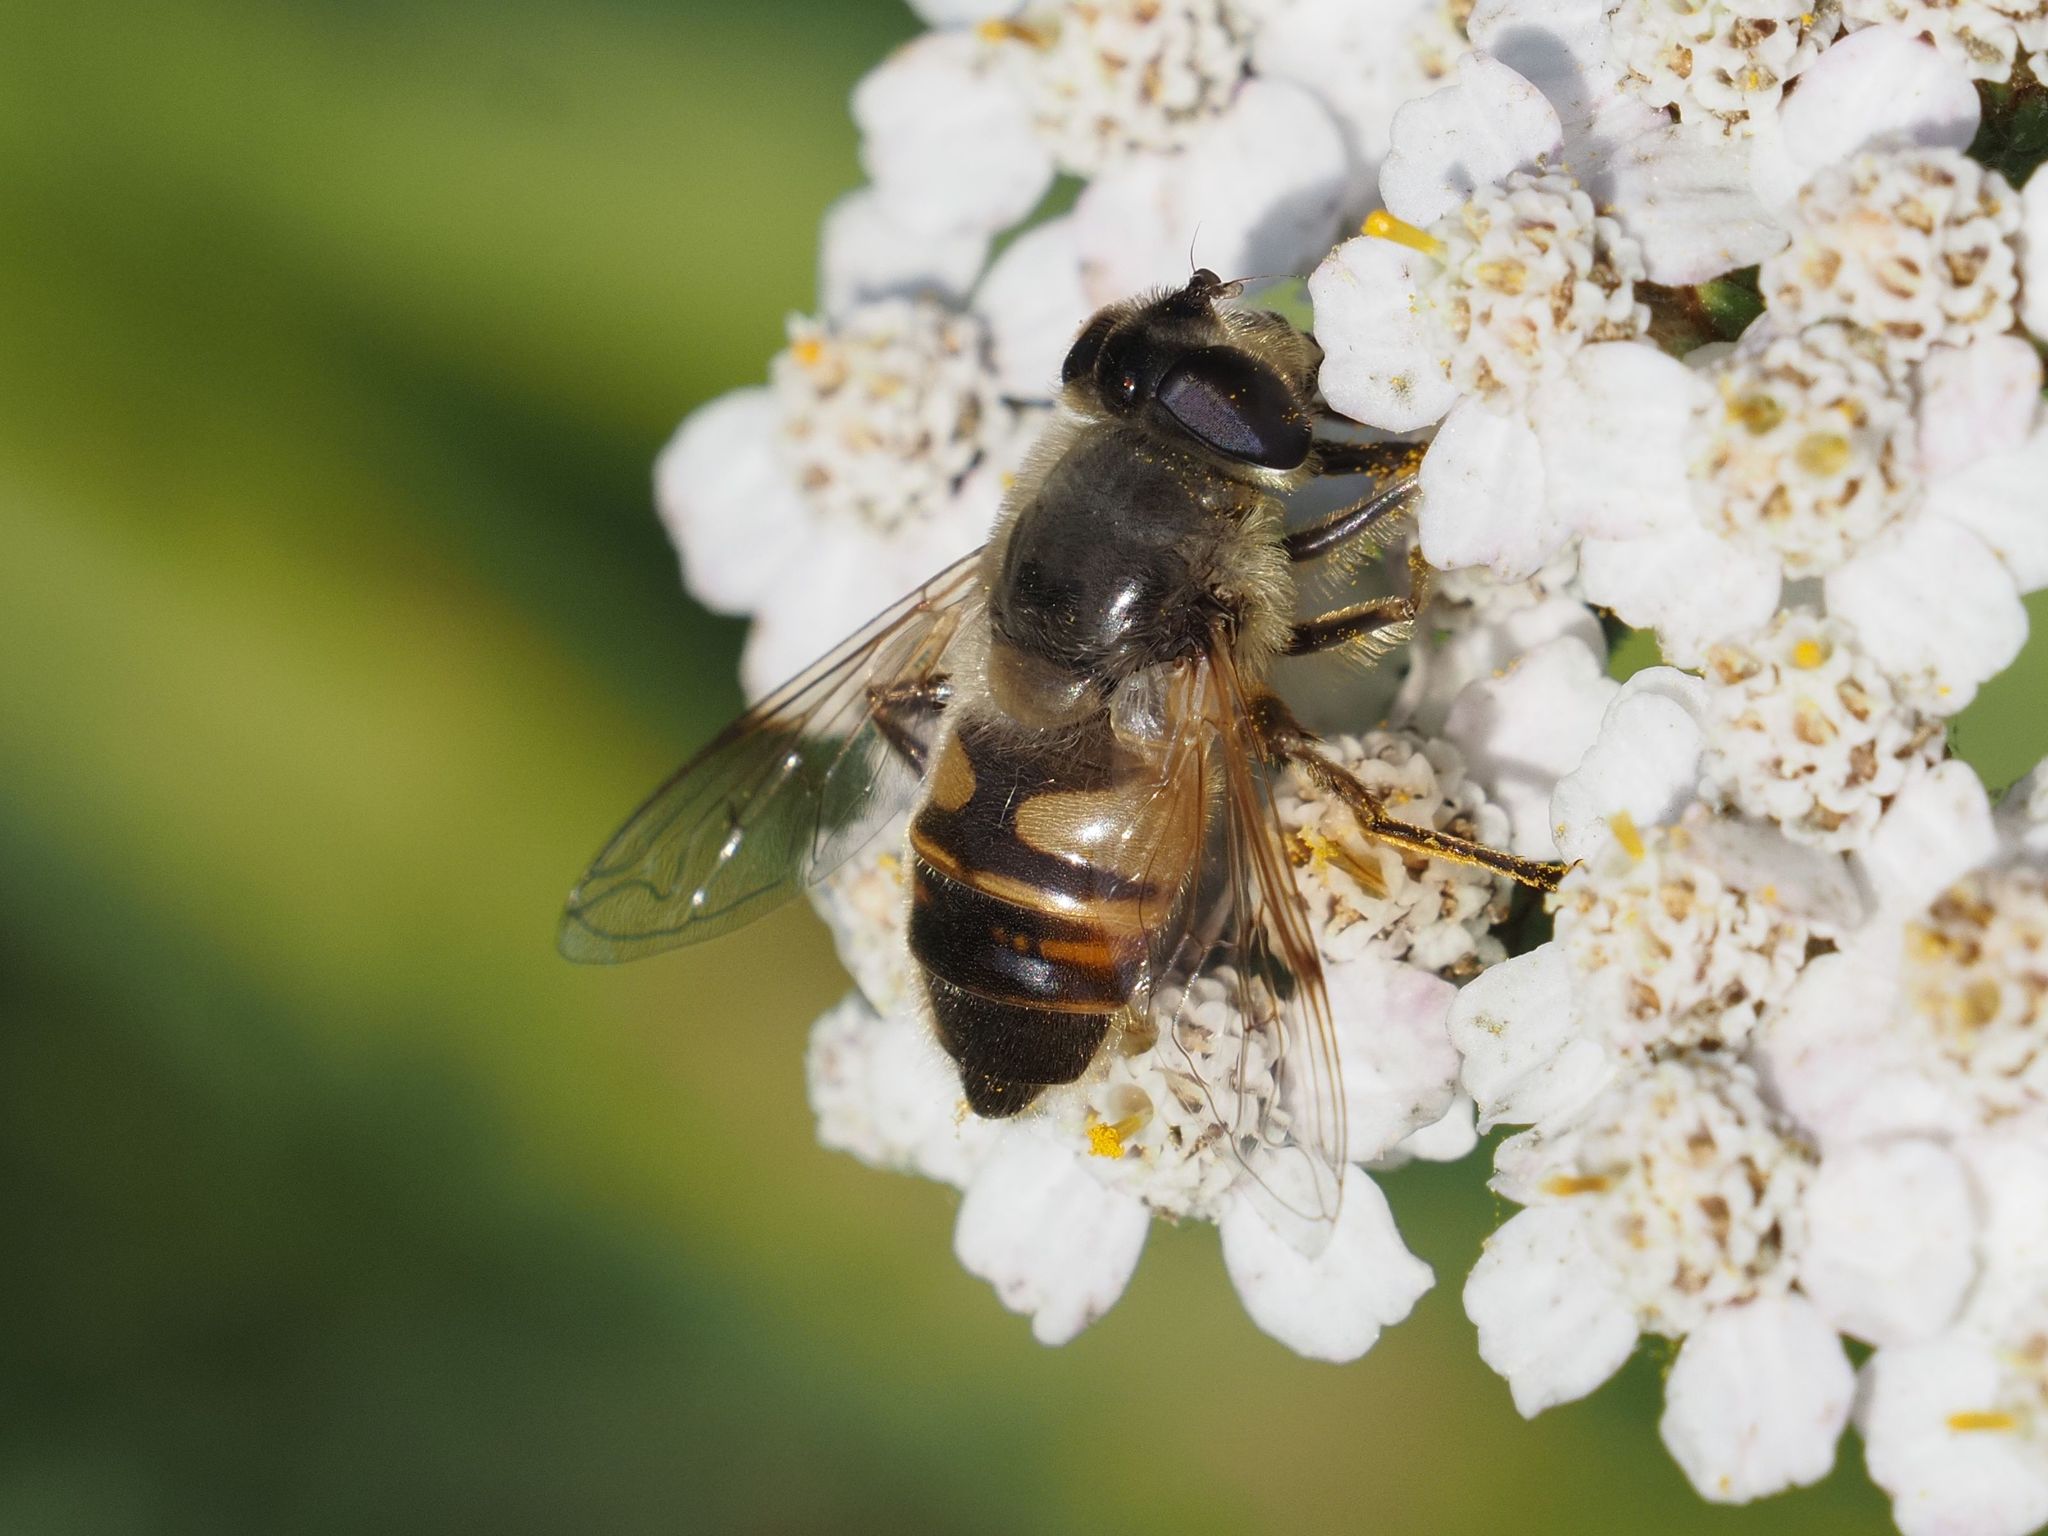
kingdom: Animalia
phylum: Arthropoda
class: Insecta
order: Diptera
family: Syrphidae
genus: Eristalis
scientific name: Eristalis tenax
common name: Drone fly
